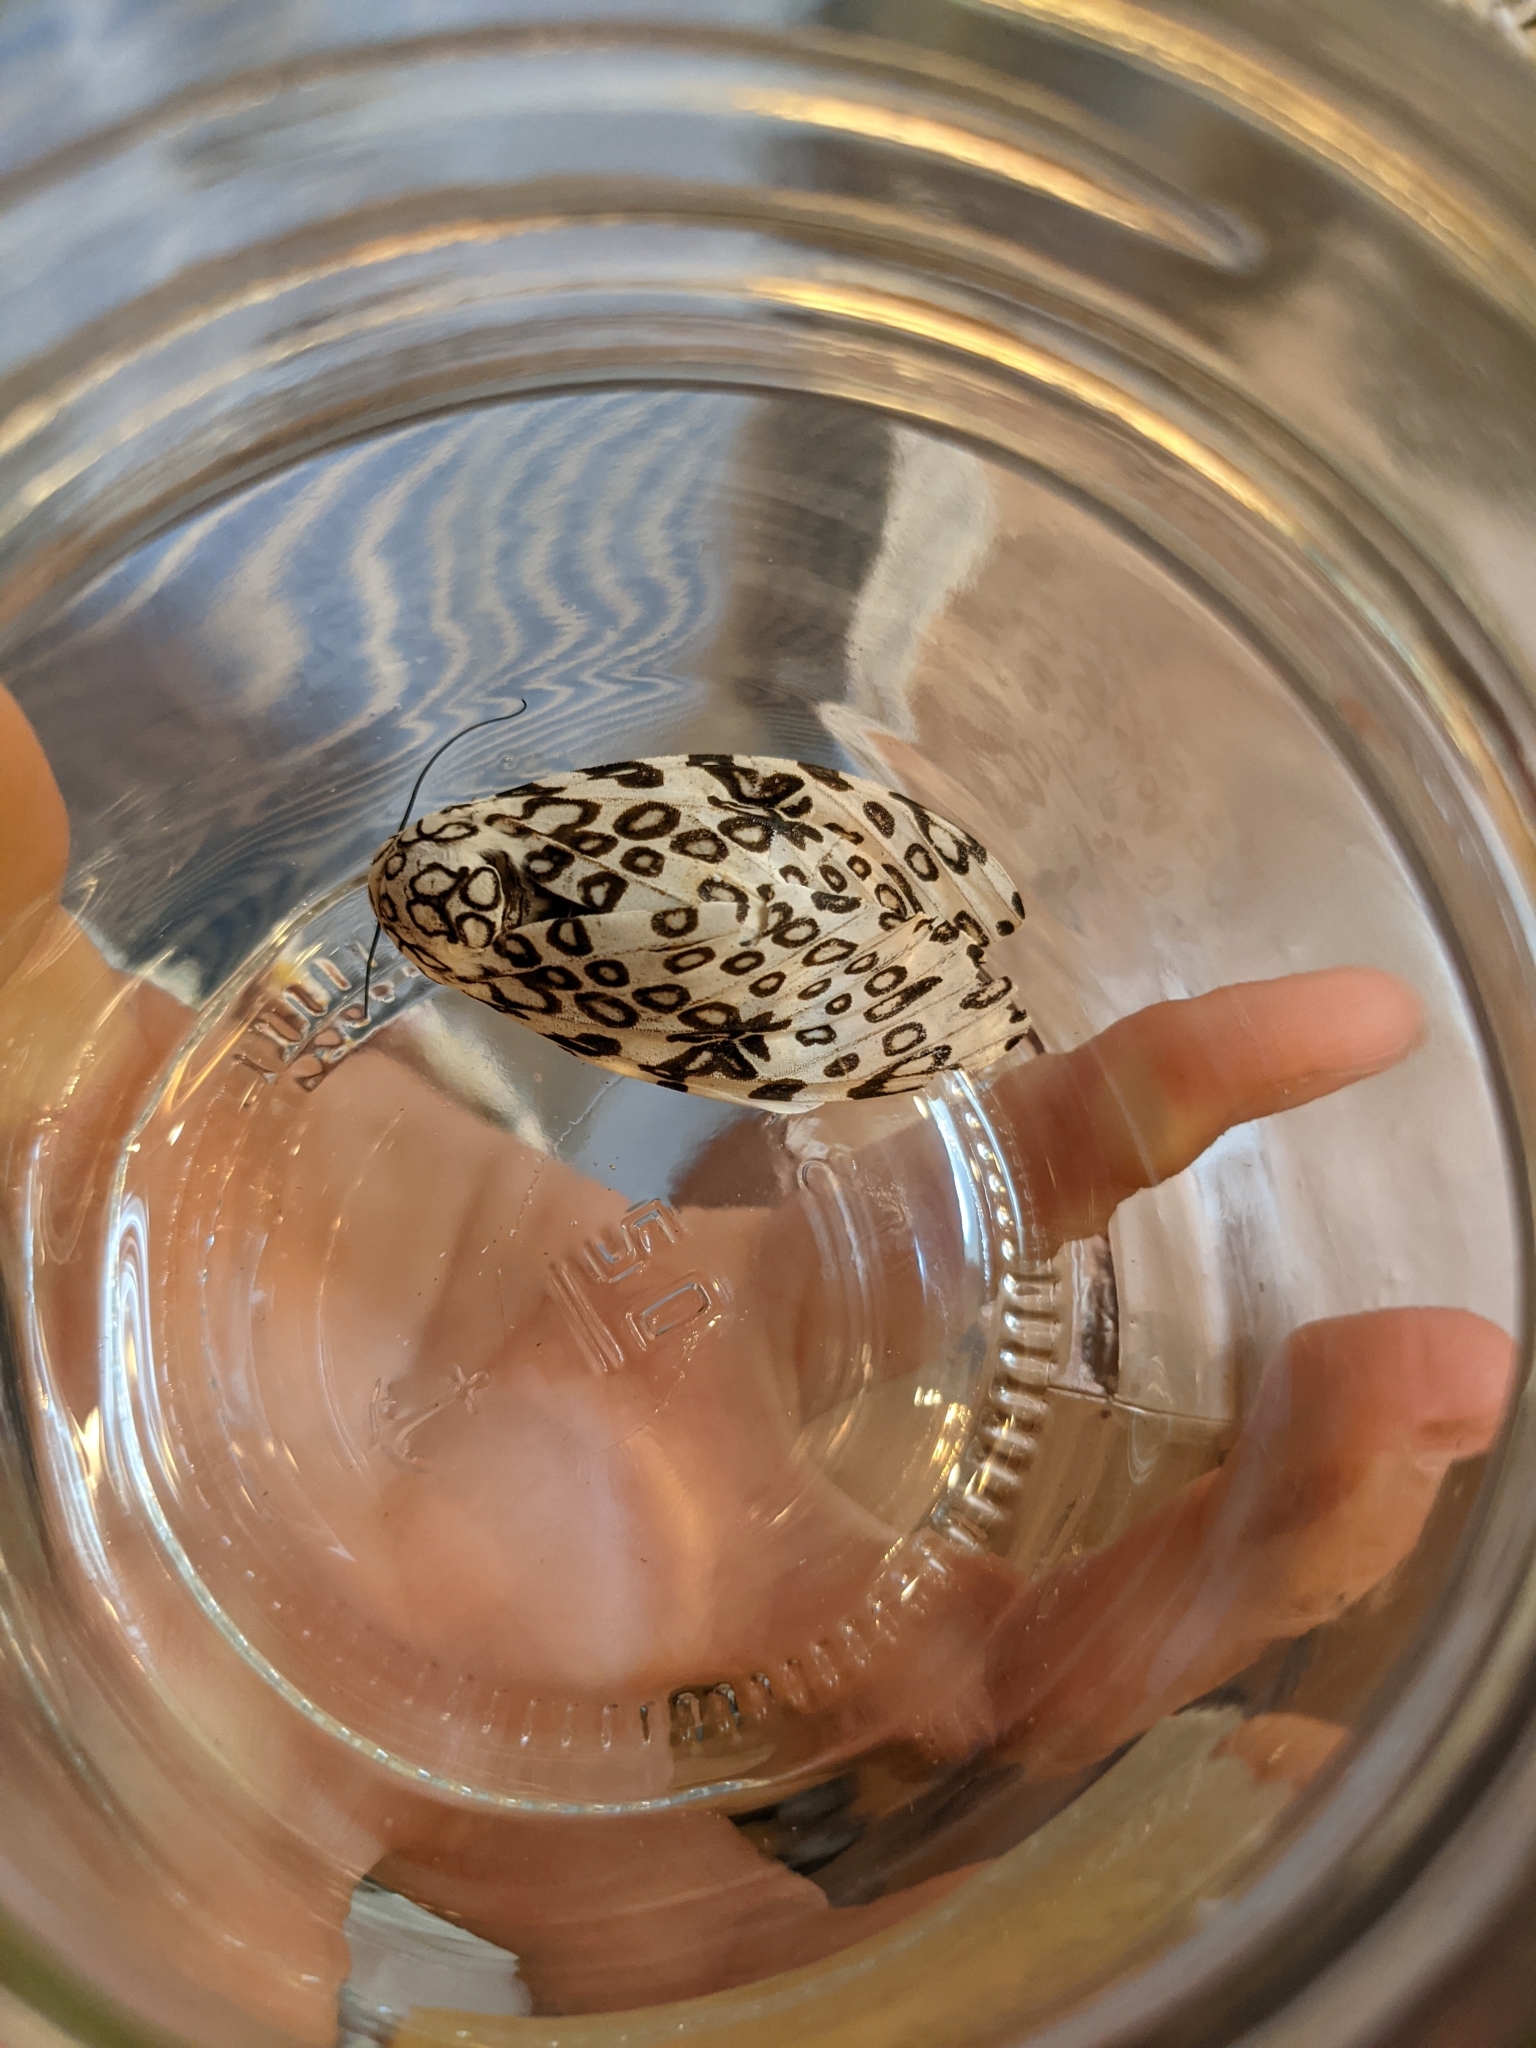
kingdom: Animalia
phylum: Arthropoda
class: Insecta
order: Lepidoptera
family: Erebidae
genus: Hypercompe
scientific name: Hypercompe scribonia
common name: Giant leopard moth
